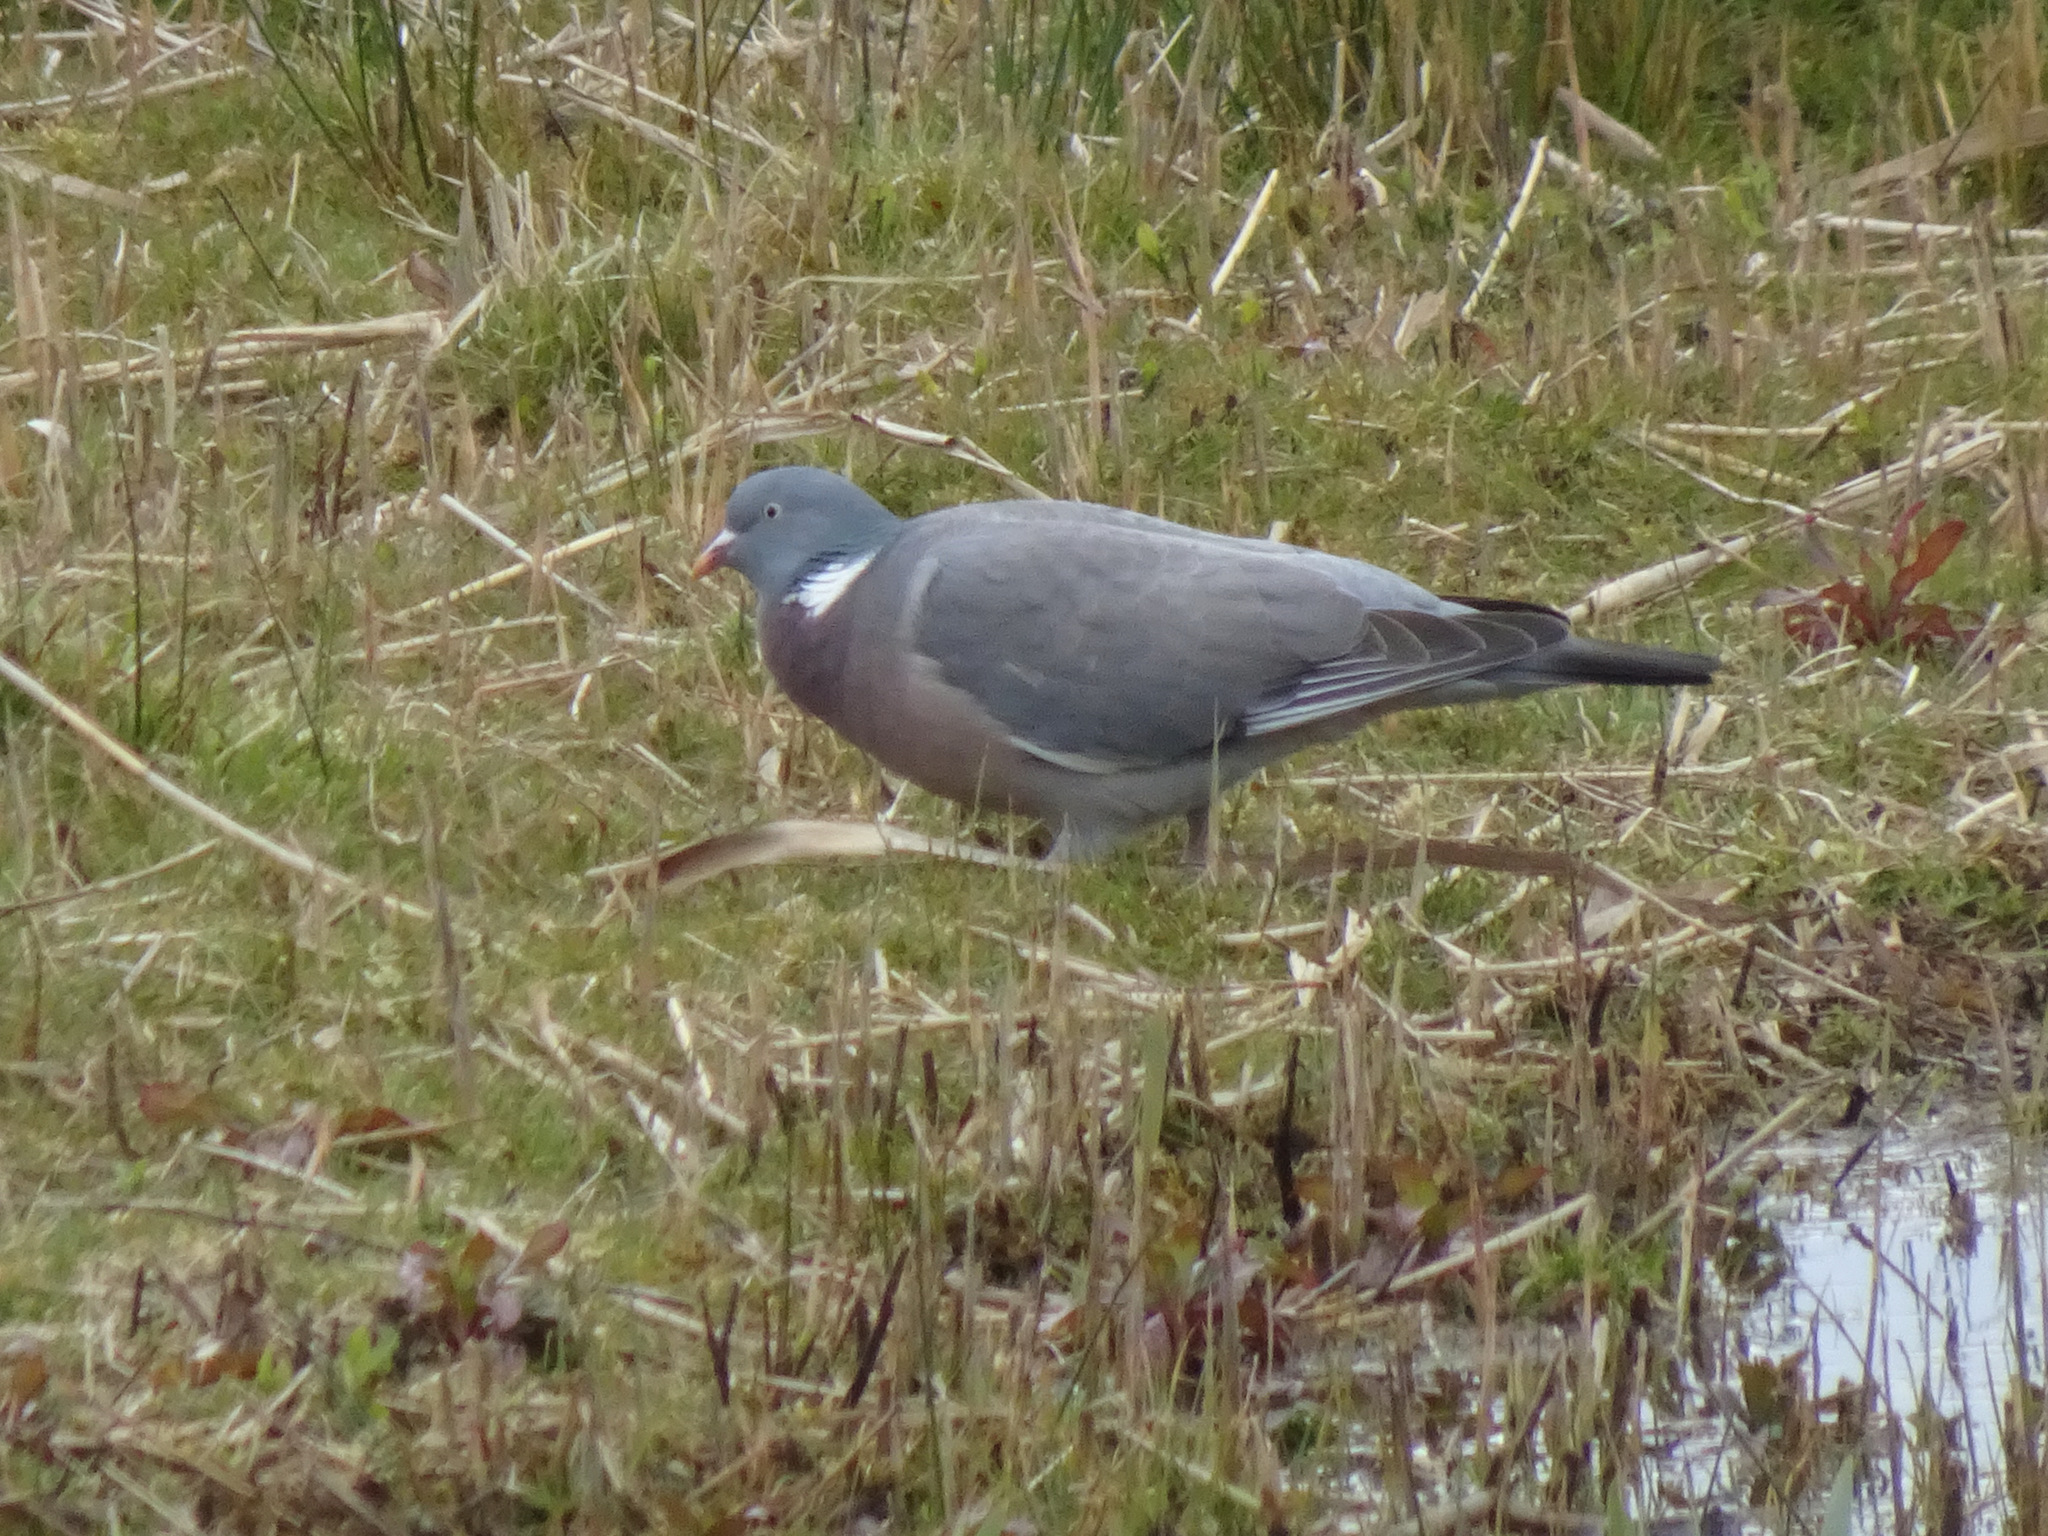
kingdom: Animalia
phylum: Chordata
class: Aves
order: Columbiformes
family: Columbidae
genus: Columba
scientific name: Columba palumbus
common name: Common wood pigeon
